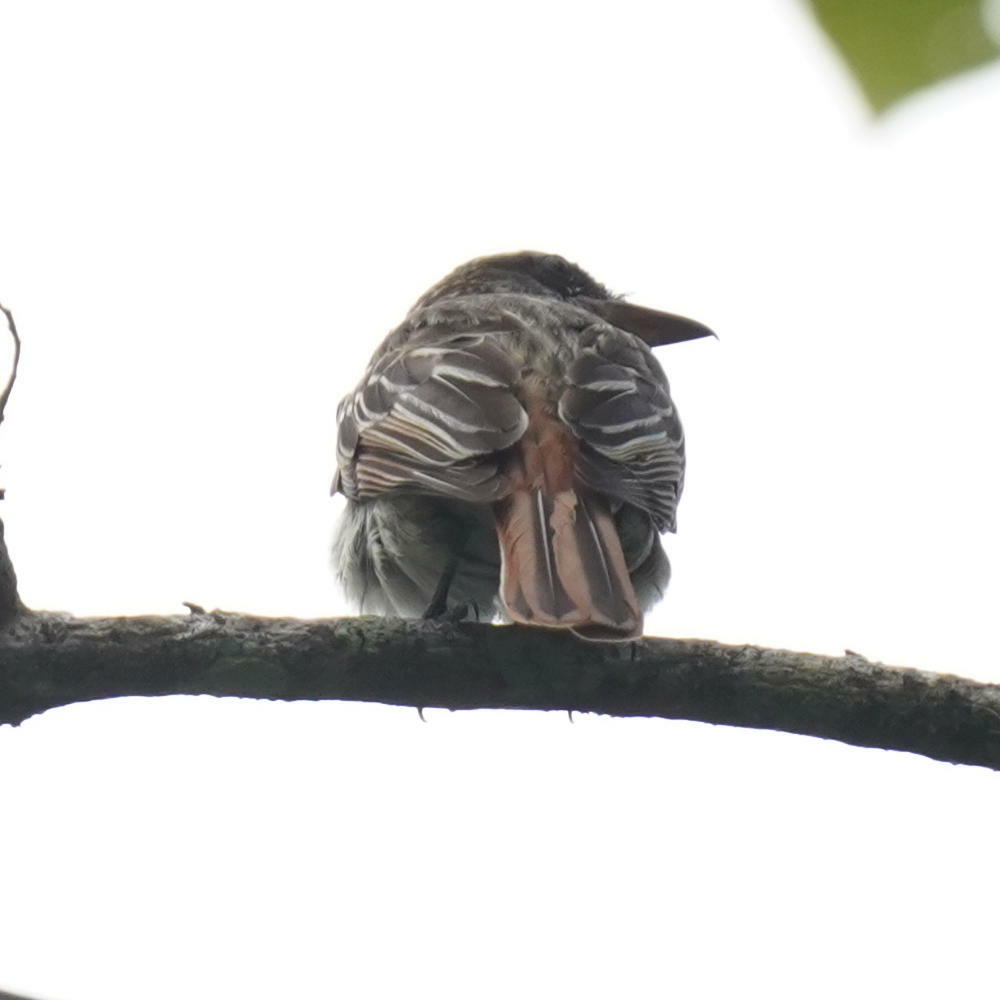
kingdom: Animalia
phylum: Chordata
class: Aves
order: Passeriformes
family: Tyrannidae
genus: Myiodynastes
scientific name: Myiodynastes maculatus
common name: Streaked flycatcher
